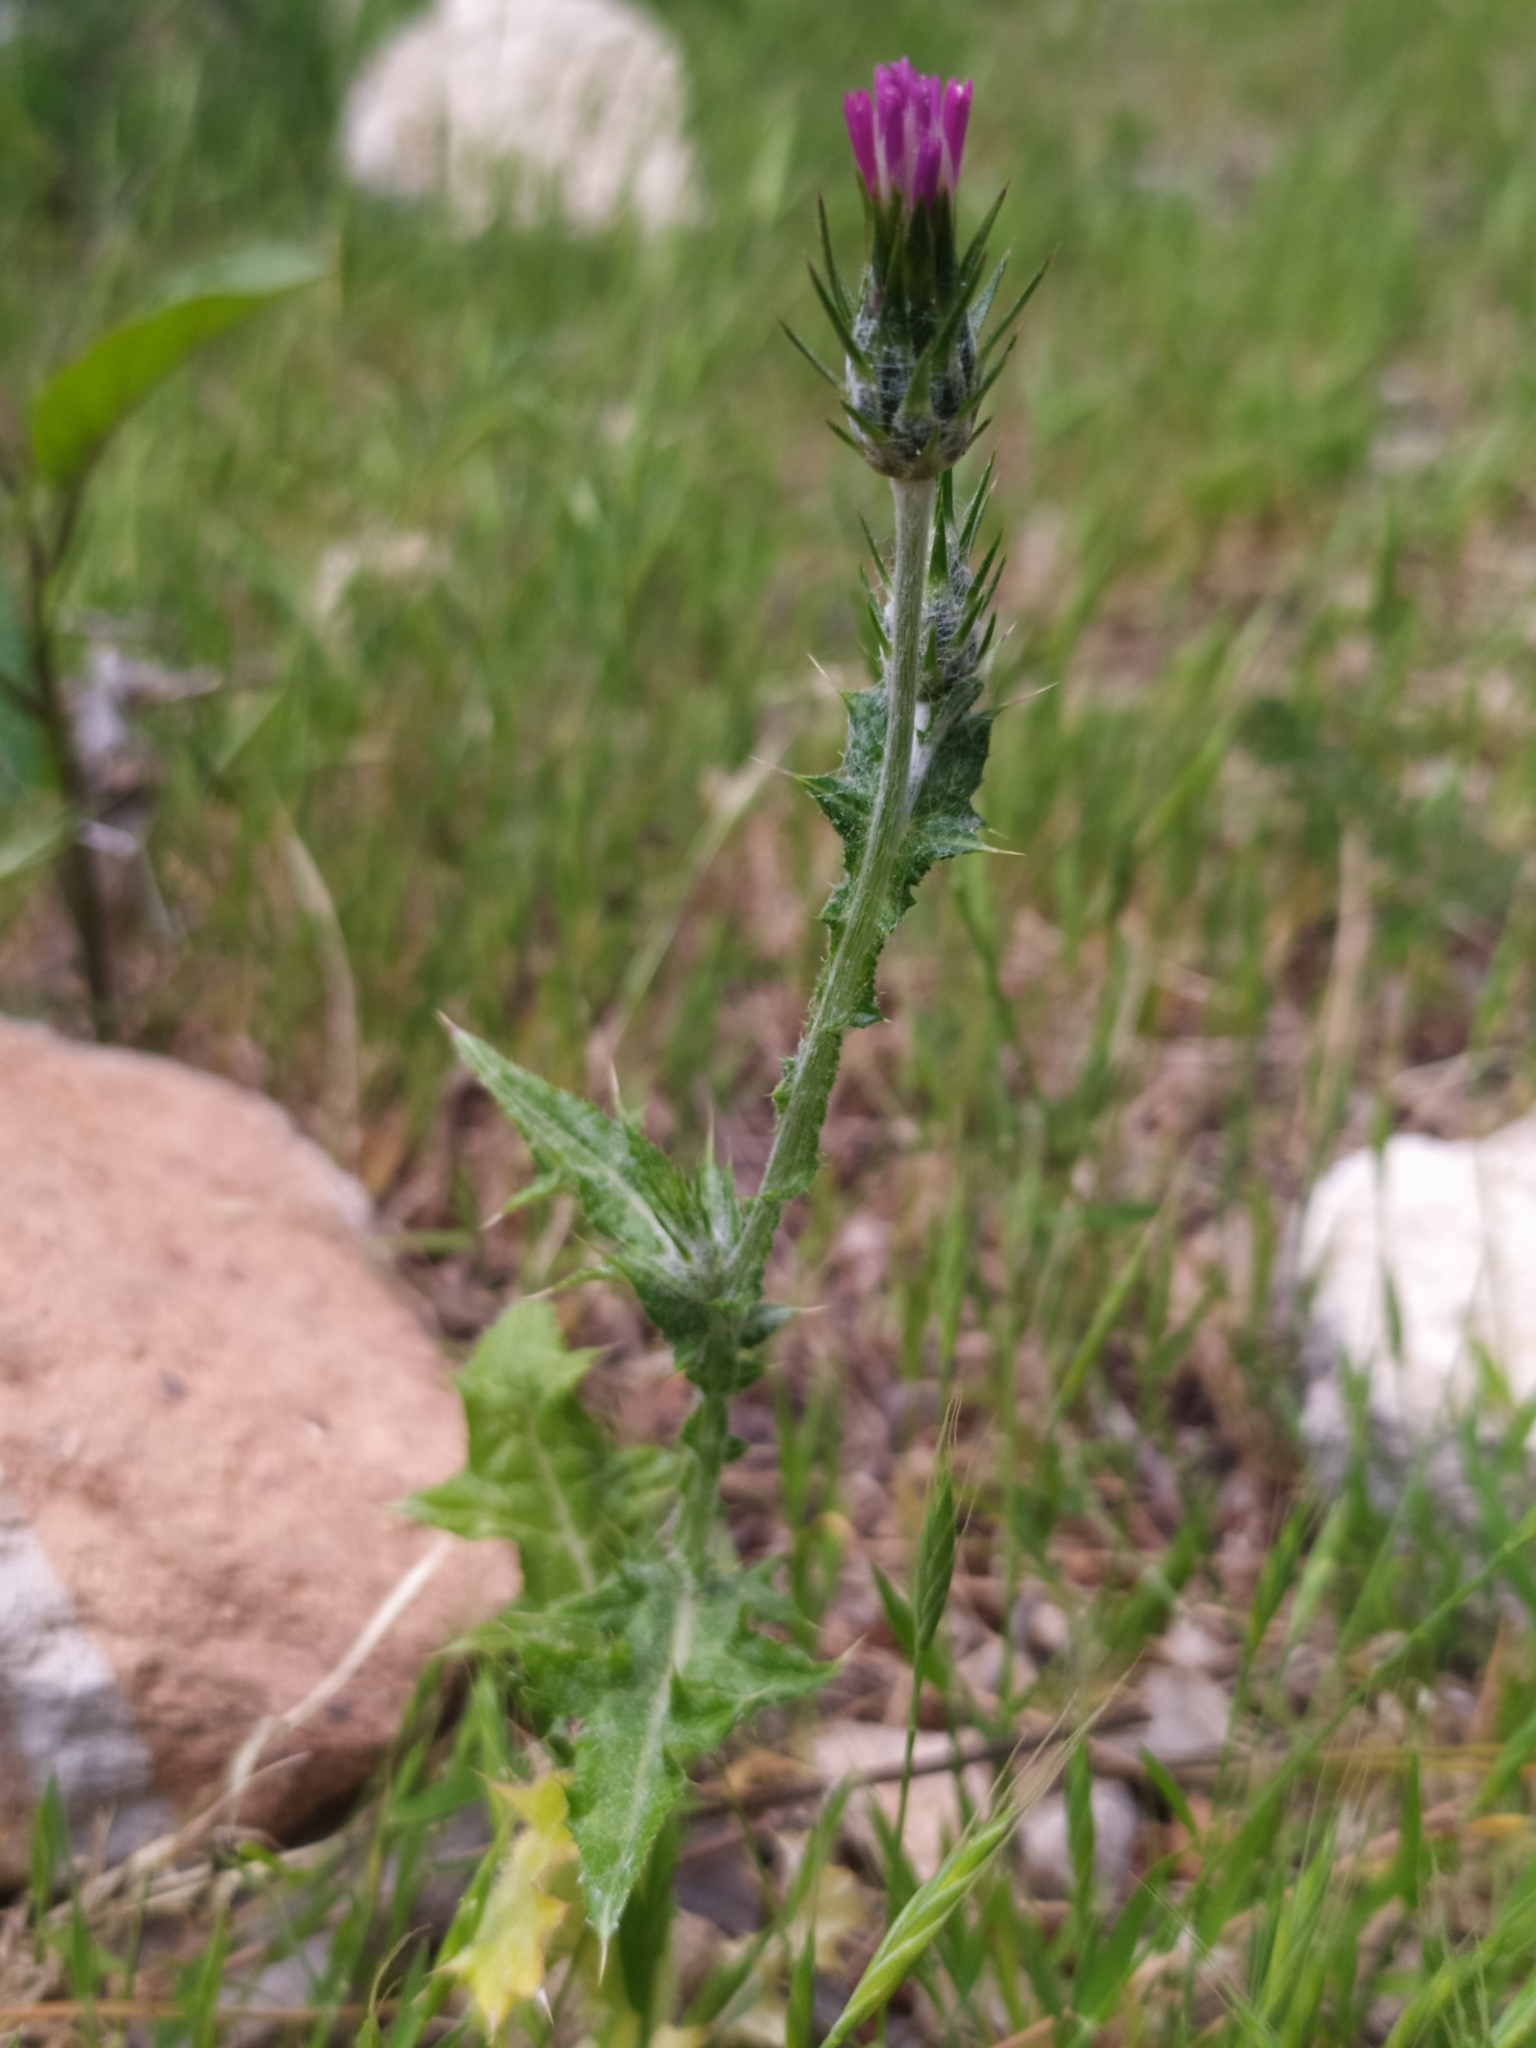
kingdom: Plantae
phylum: Tracheophyta
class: Magnoliopsida
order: Asterales
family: Asteraceae
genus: Carduus
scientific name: Carduus pycnocephalus
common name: Plymouth thistle
